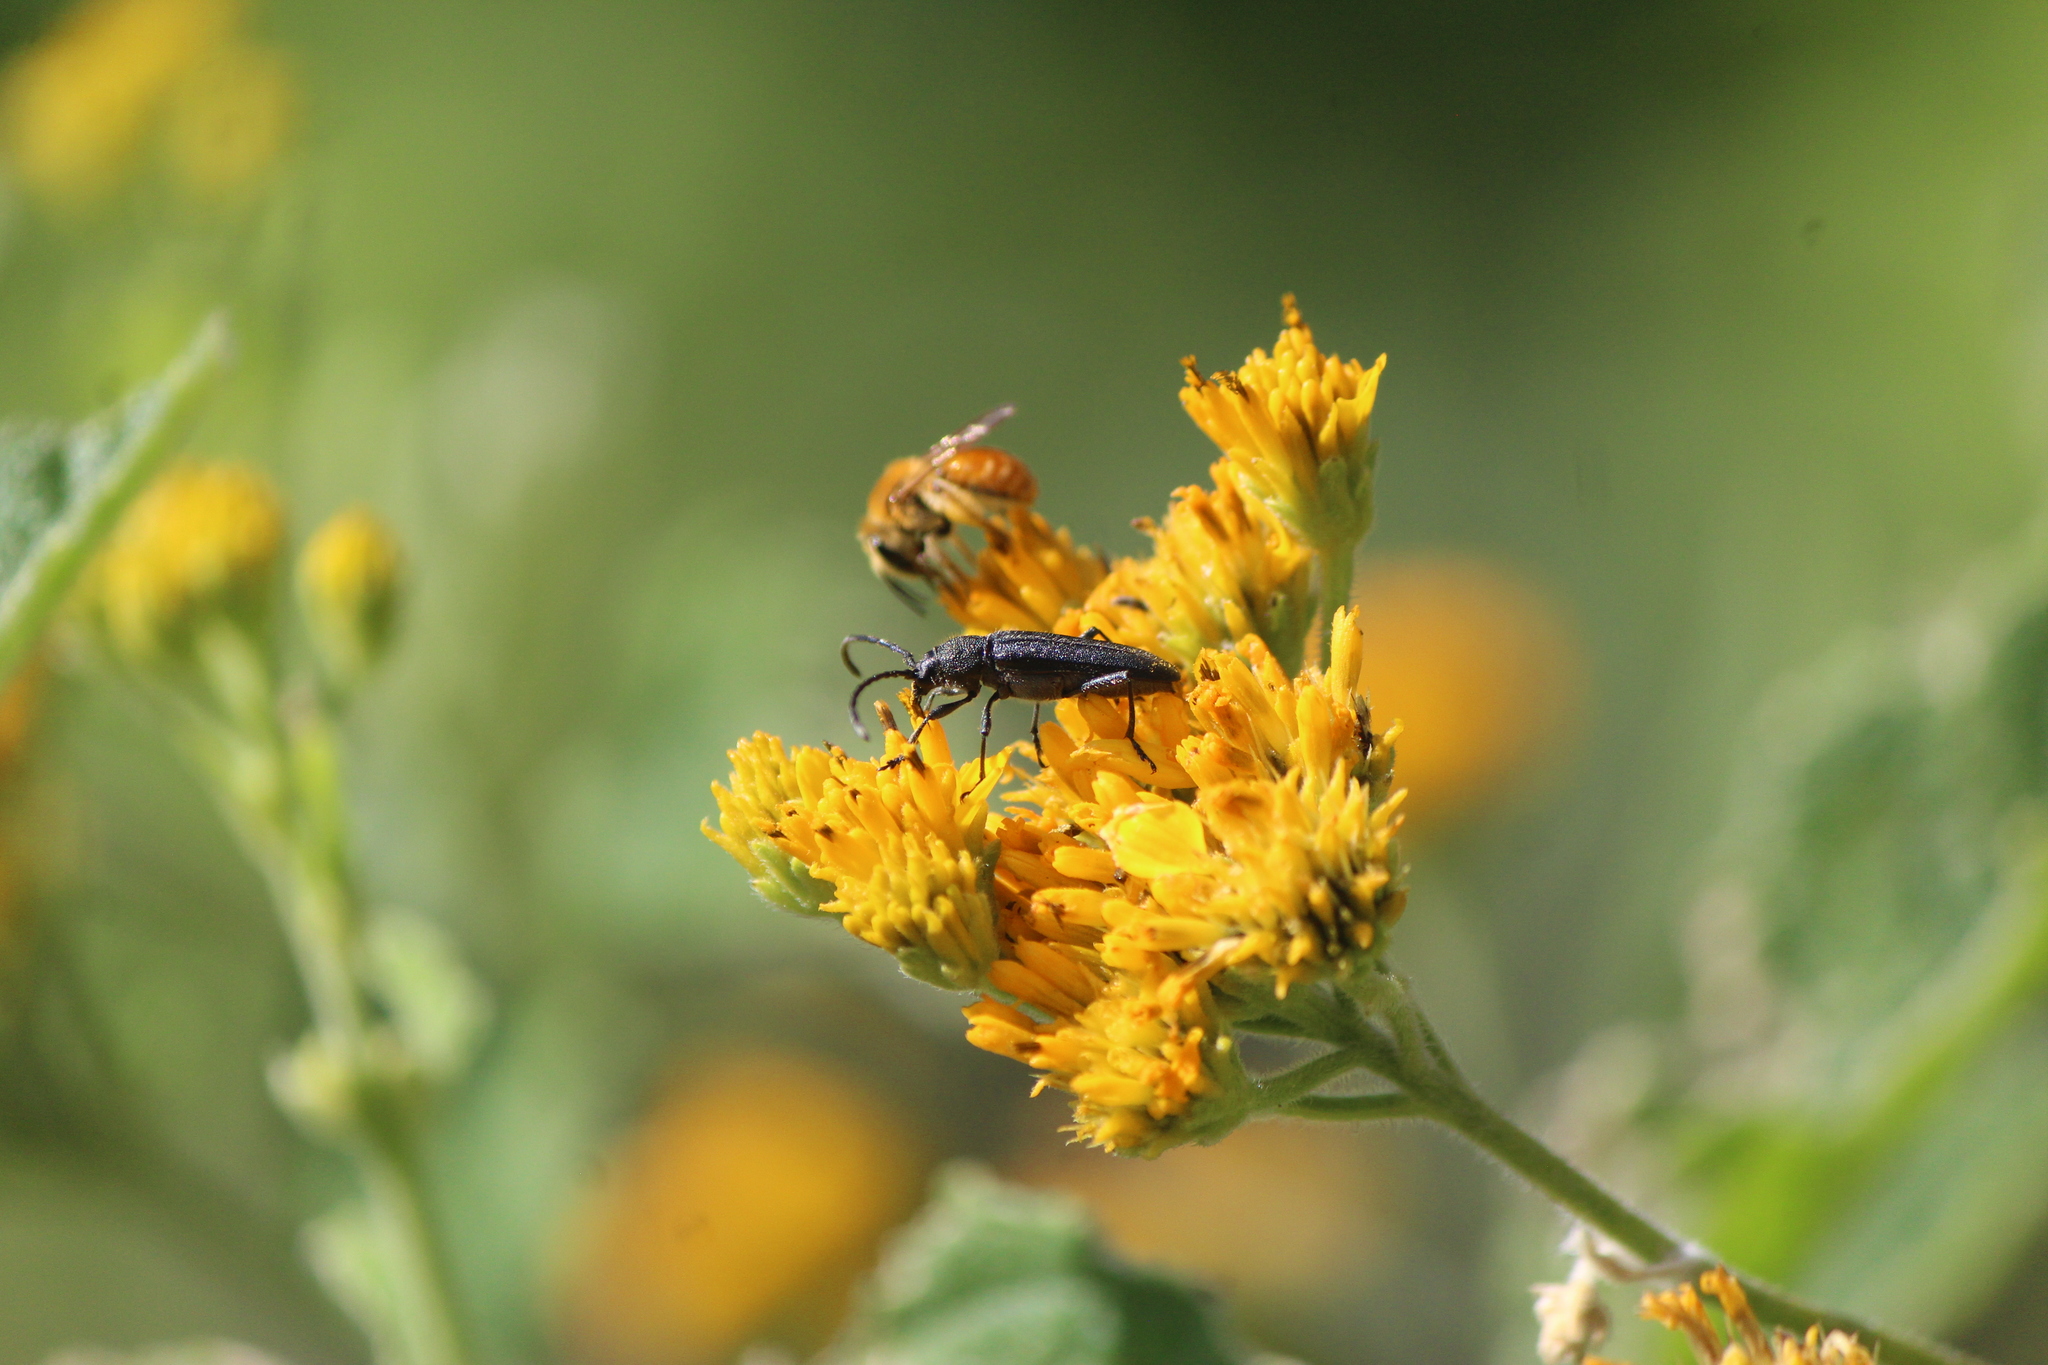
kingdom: Animalia
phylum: Arthropoda
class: Insecta
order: Coleoptera
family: Cerambycidae
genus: Mannophorus
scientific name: Mannophorus laetus
